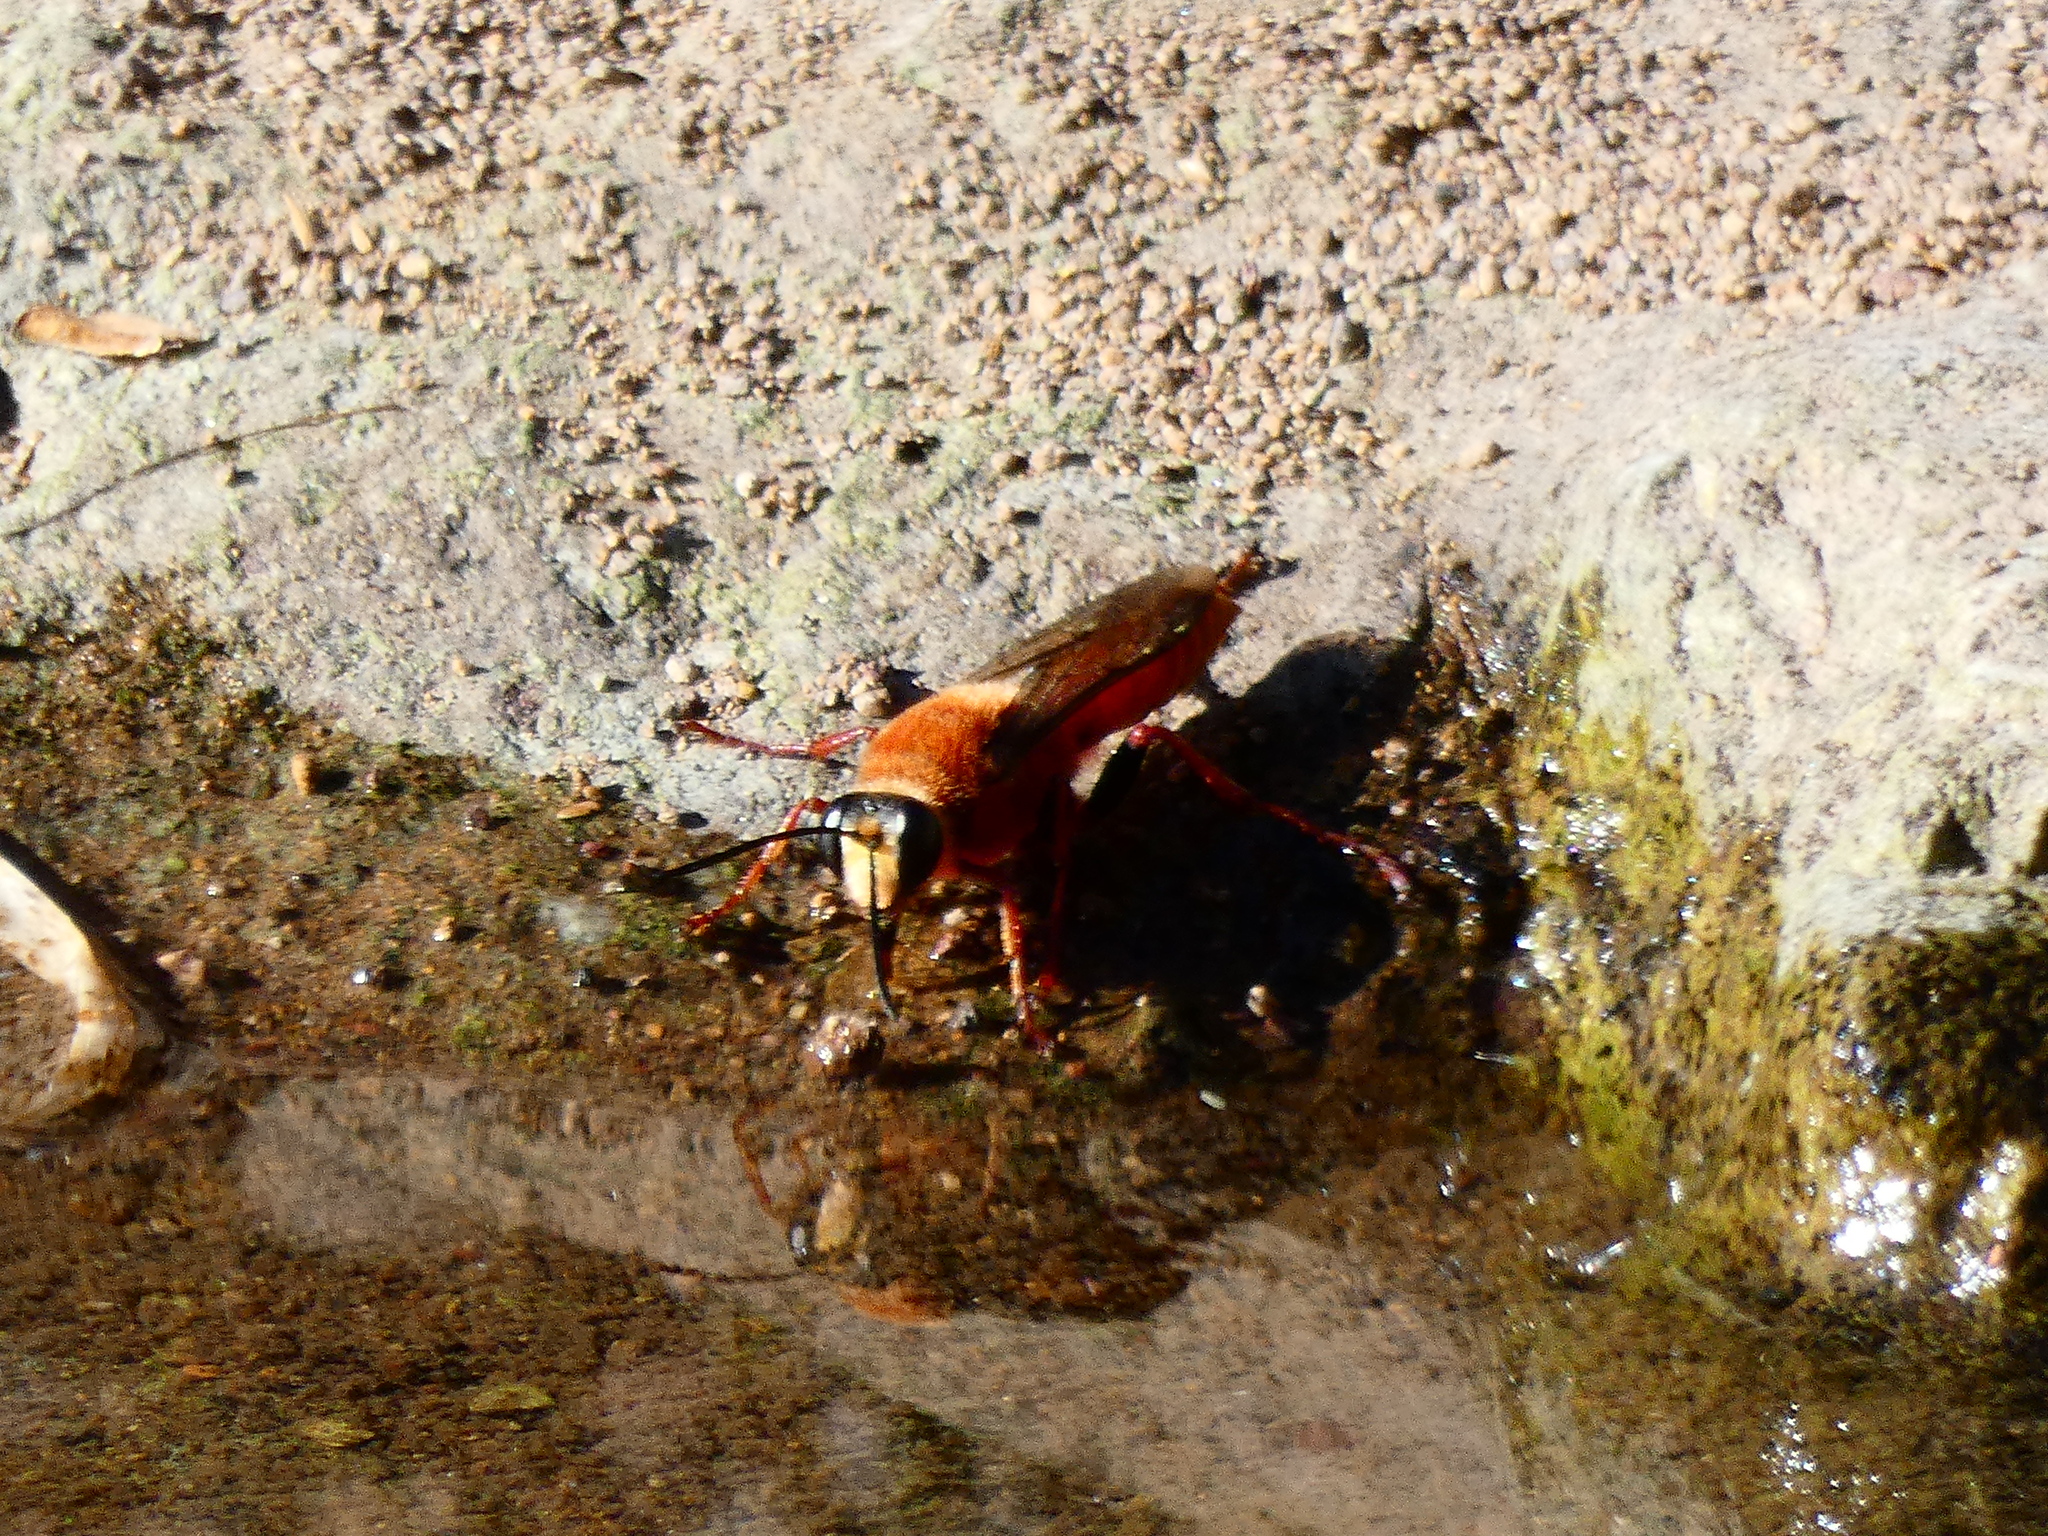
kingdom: Animalia
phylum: Arthropoda
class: Insecta
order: Hymenoptera
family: Sphecidae
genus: Sphex
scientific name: Sphex latreillei
